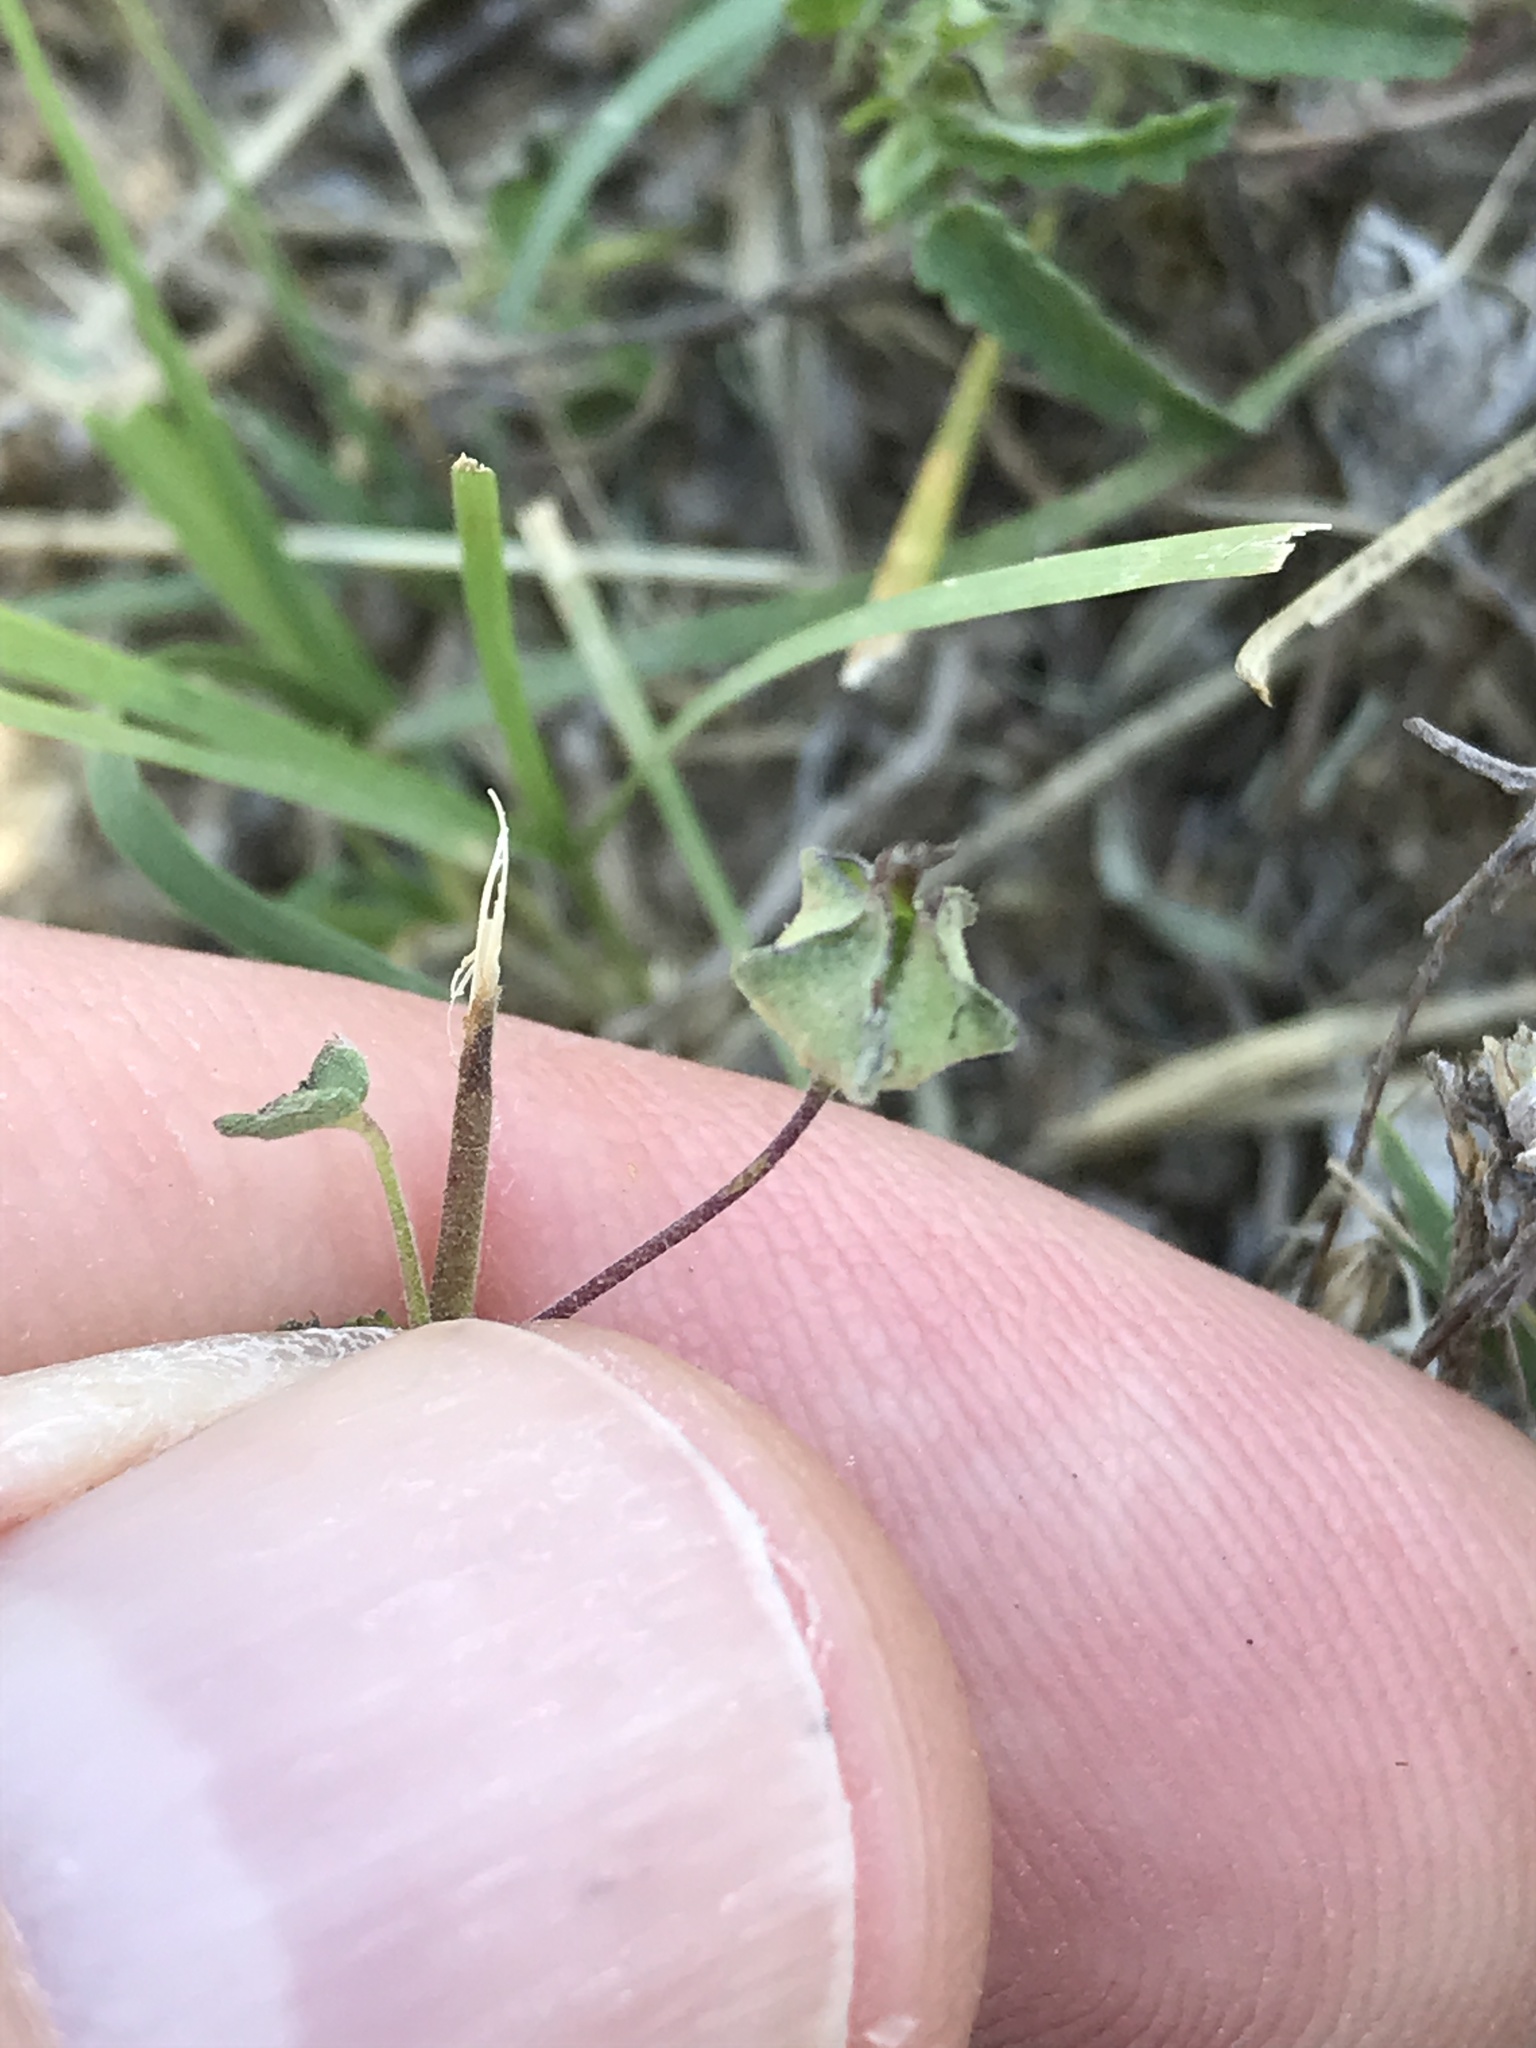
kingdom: Plantae
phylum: Tracheophyta
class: Magnoliopsida
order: Malvales
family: Malvaceae
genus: Sida
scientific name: Sida abutilifolia
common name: Spreading fanpetals
